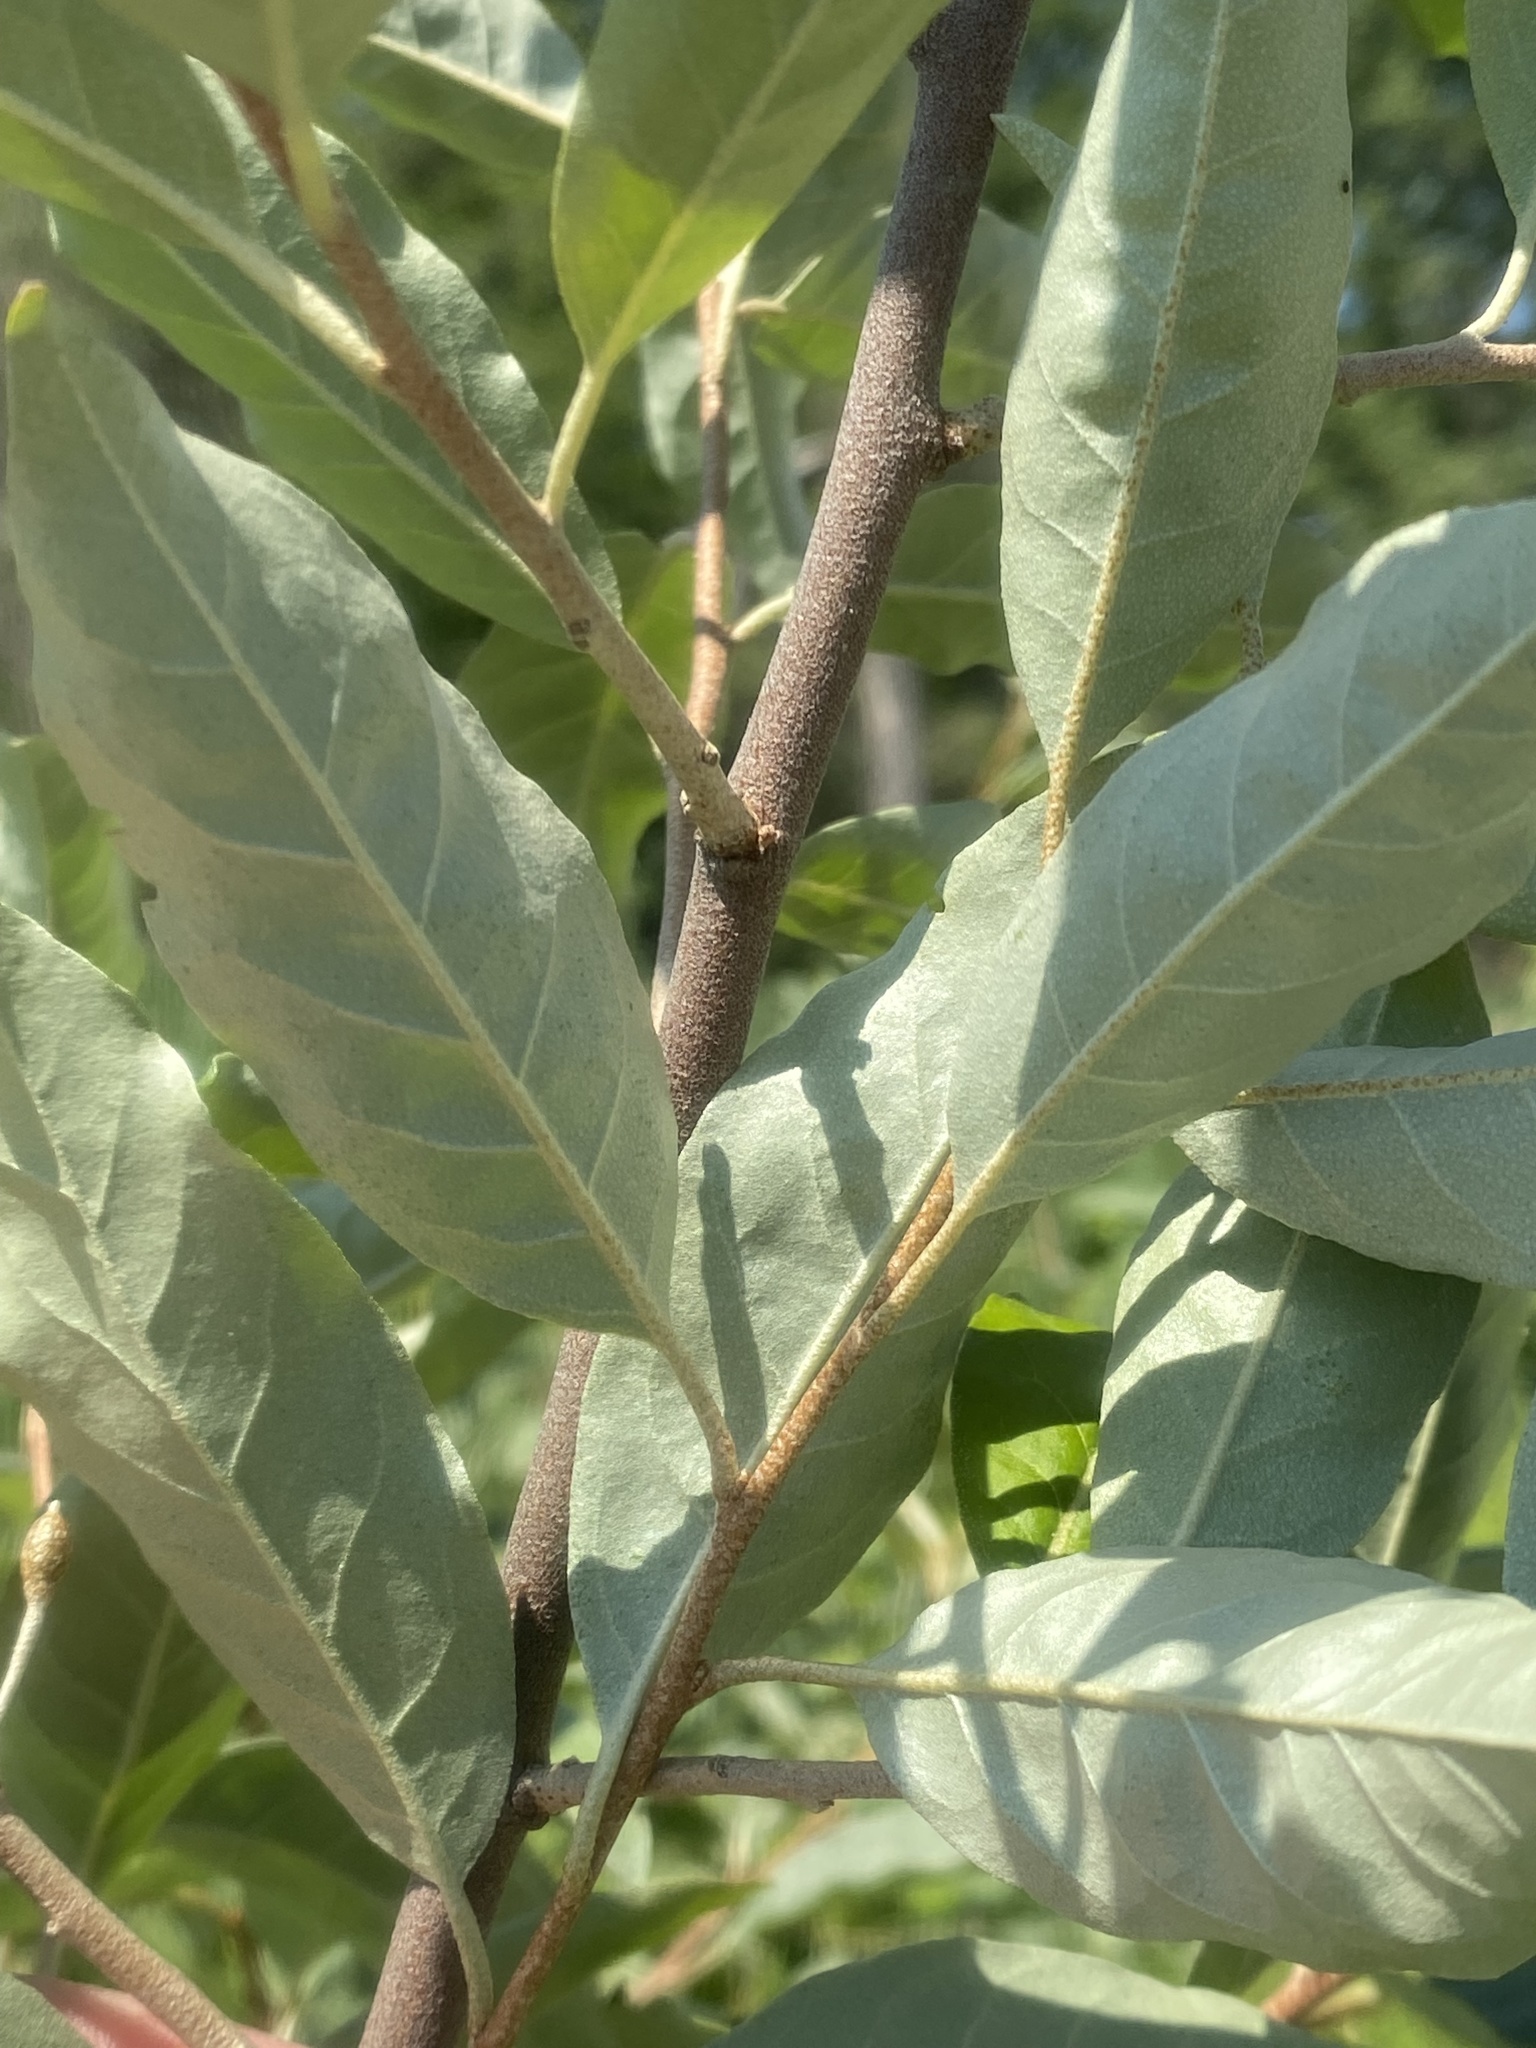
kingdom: Plantae
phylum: Tracheophyta
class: Magnoliopsida
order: Rosales
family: Elaeagnaceae
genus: Elaeagnus
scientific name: Elaeagnus umbellata
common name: Autumn olive
